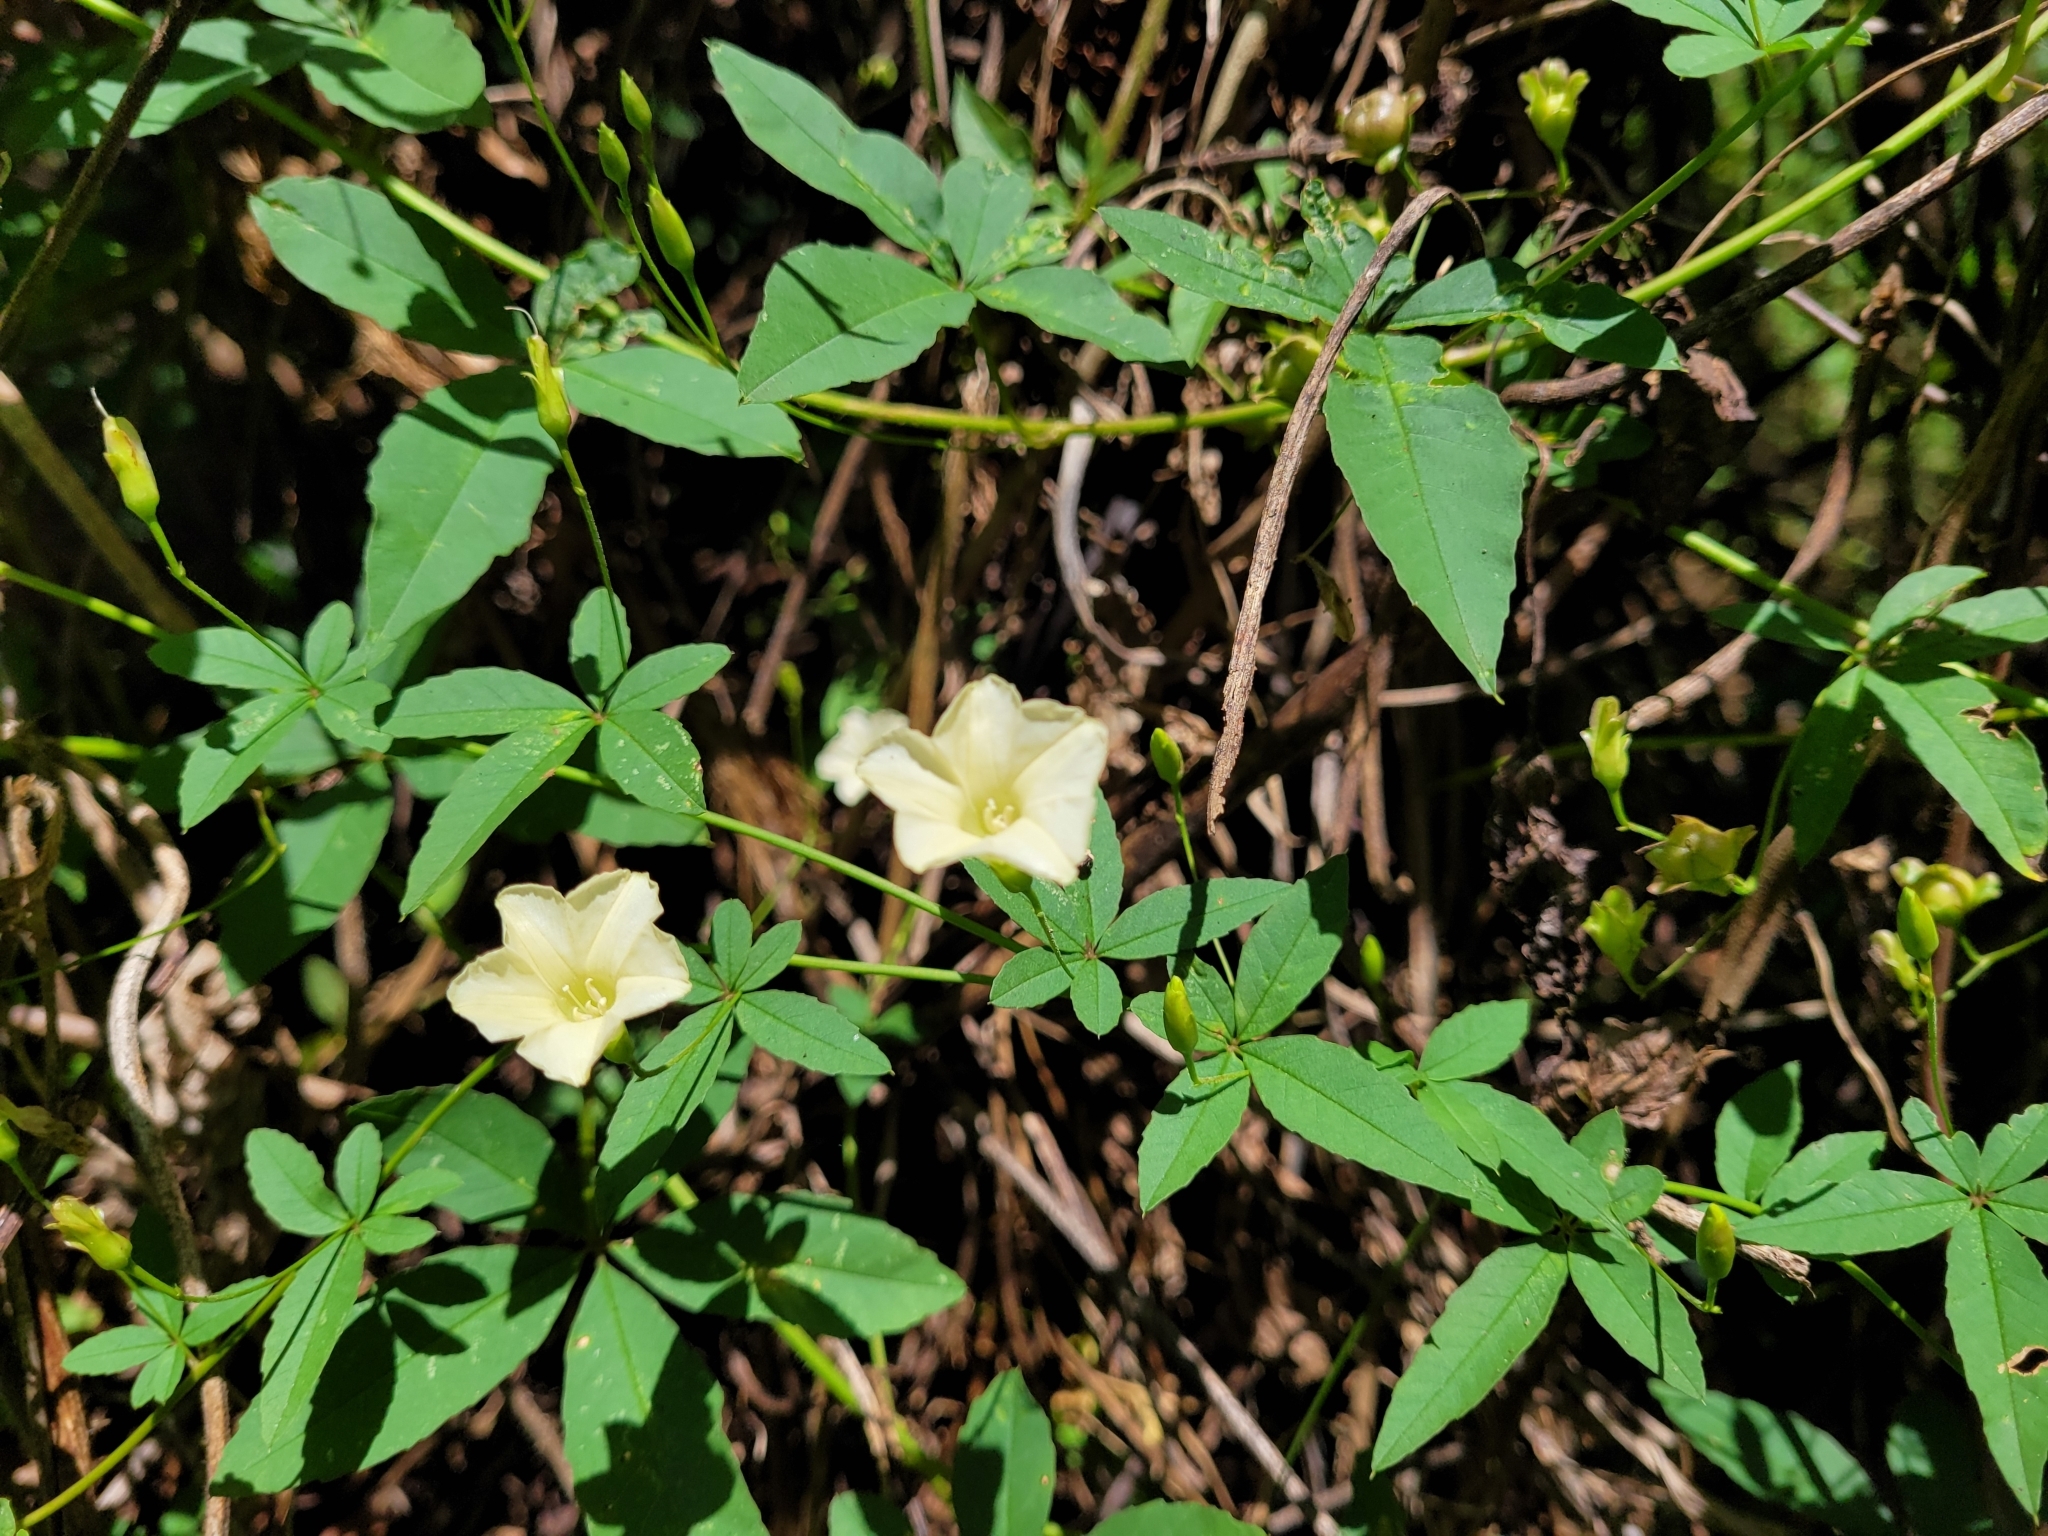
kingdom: Plantae
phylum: Tracheophyta
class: Magnoliopsida
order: Solanales
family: Convolvulaceae
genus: Distimake
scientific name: Distimake quinquefolius
